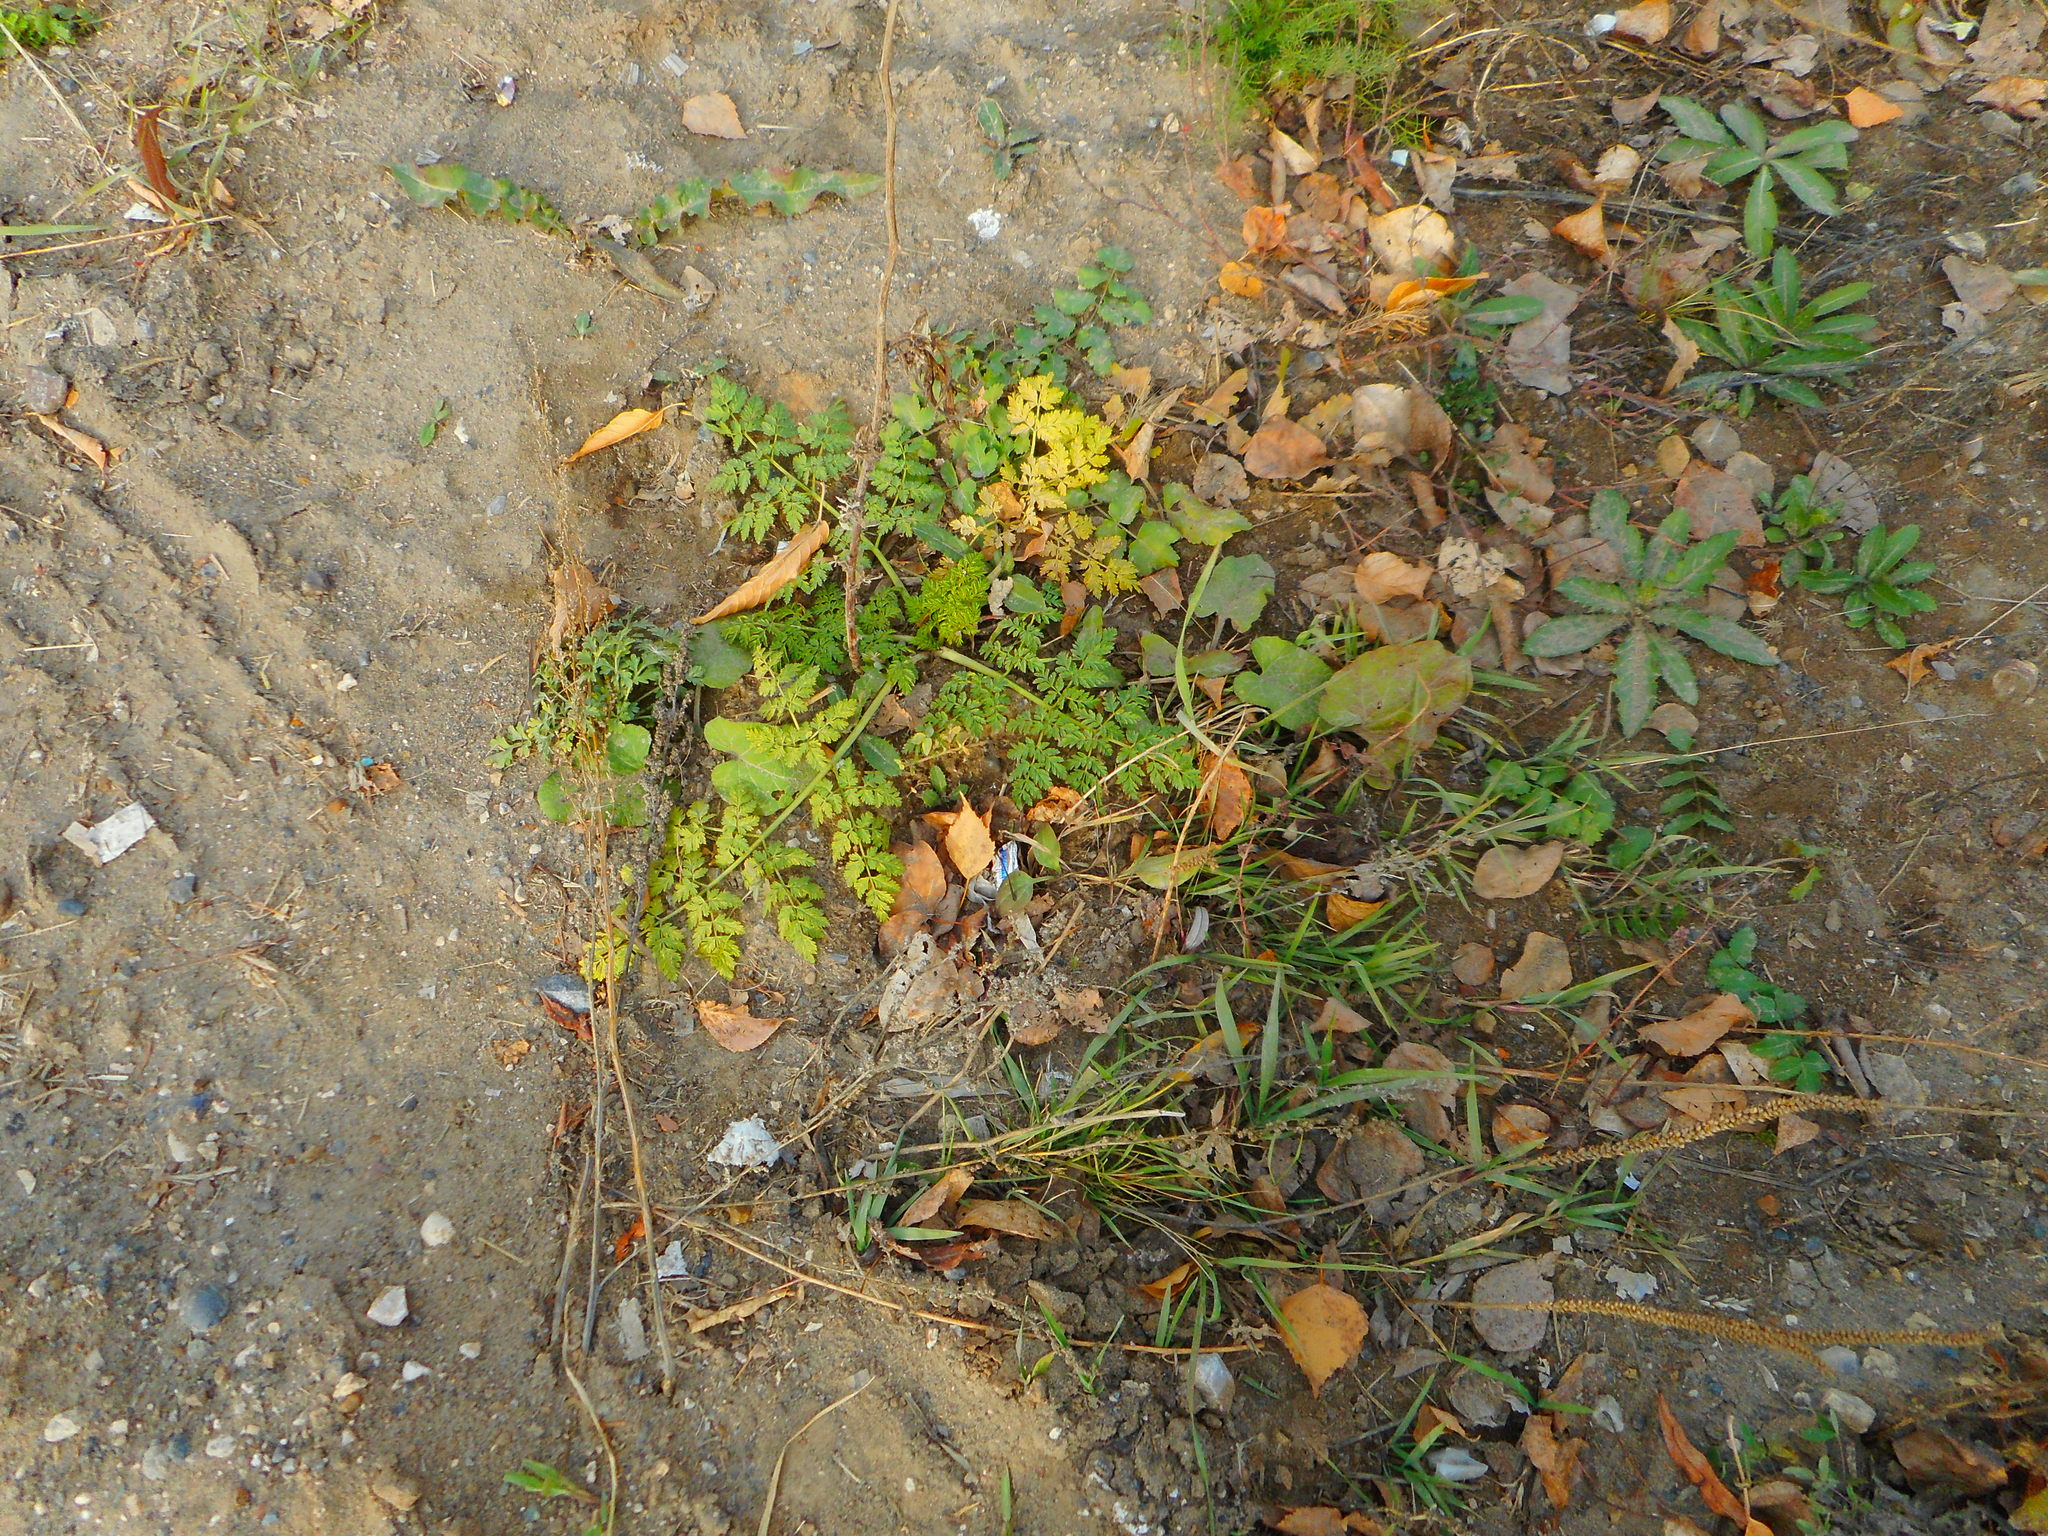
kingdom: Plantae
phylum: Tracheophyta
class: Magnoliopsida
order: Apiales
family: Apiaceae
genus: Anthriscus
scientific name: Anthriscus sylvestris
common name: Cow parsley
